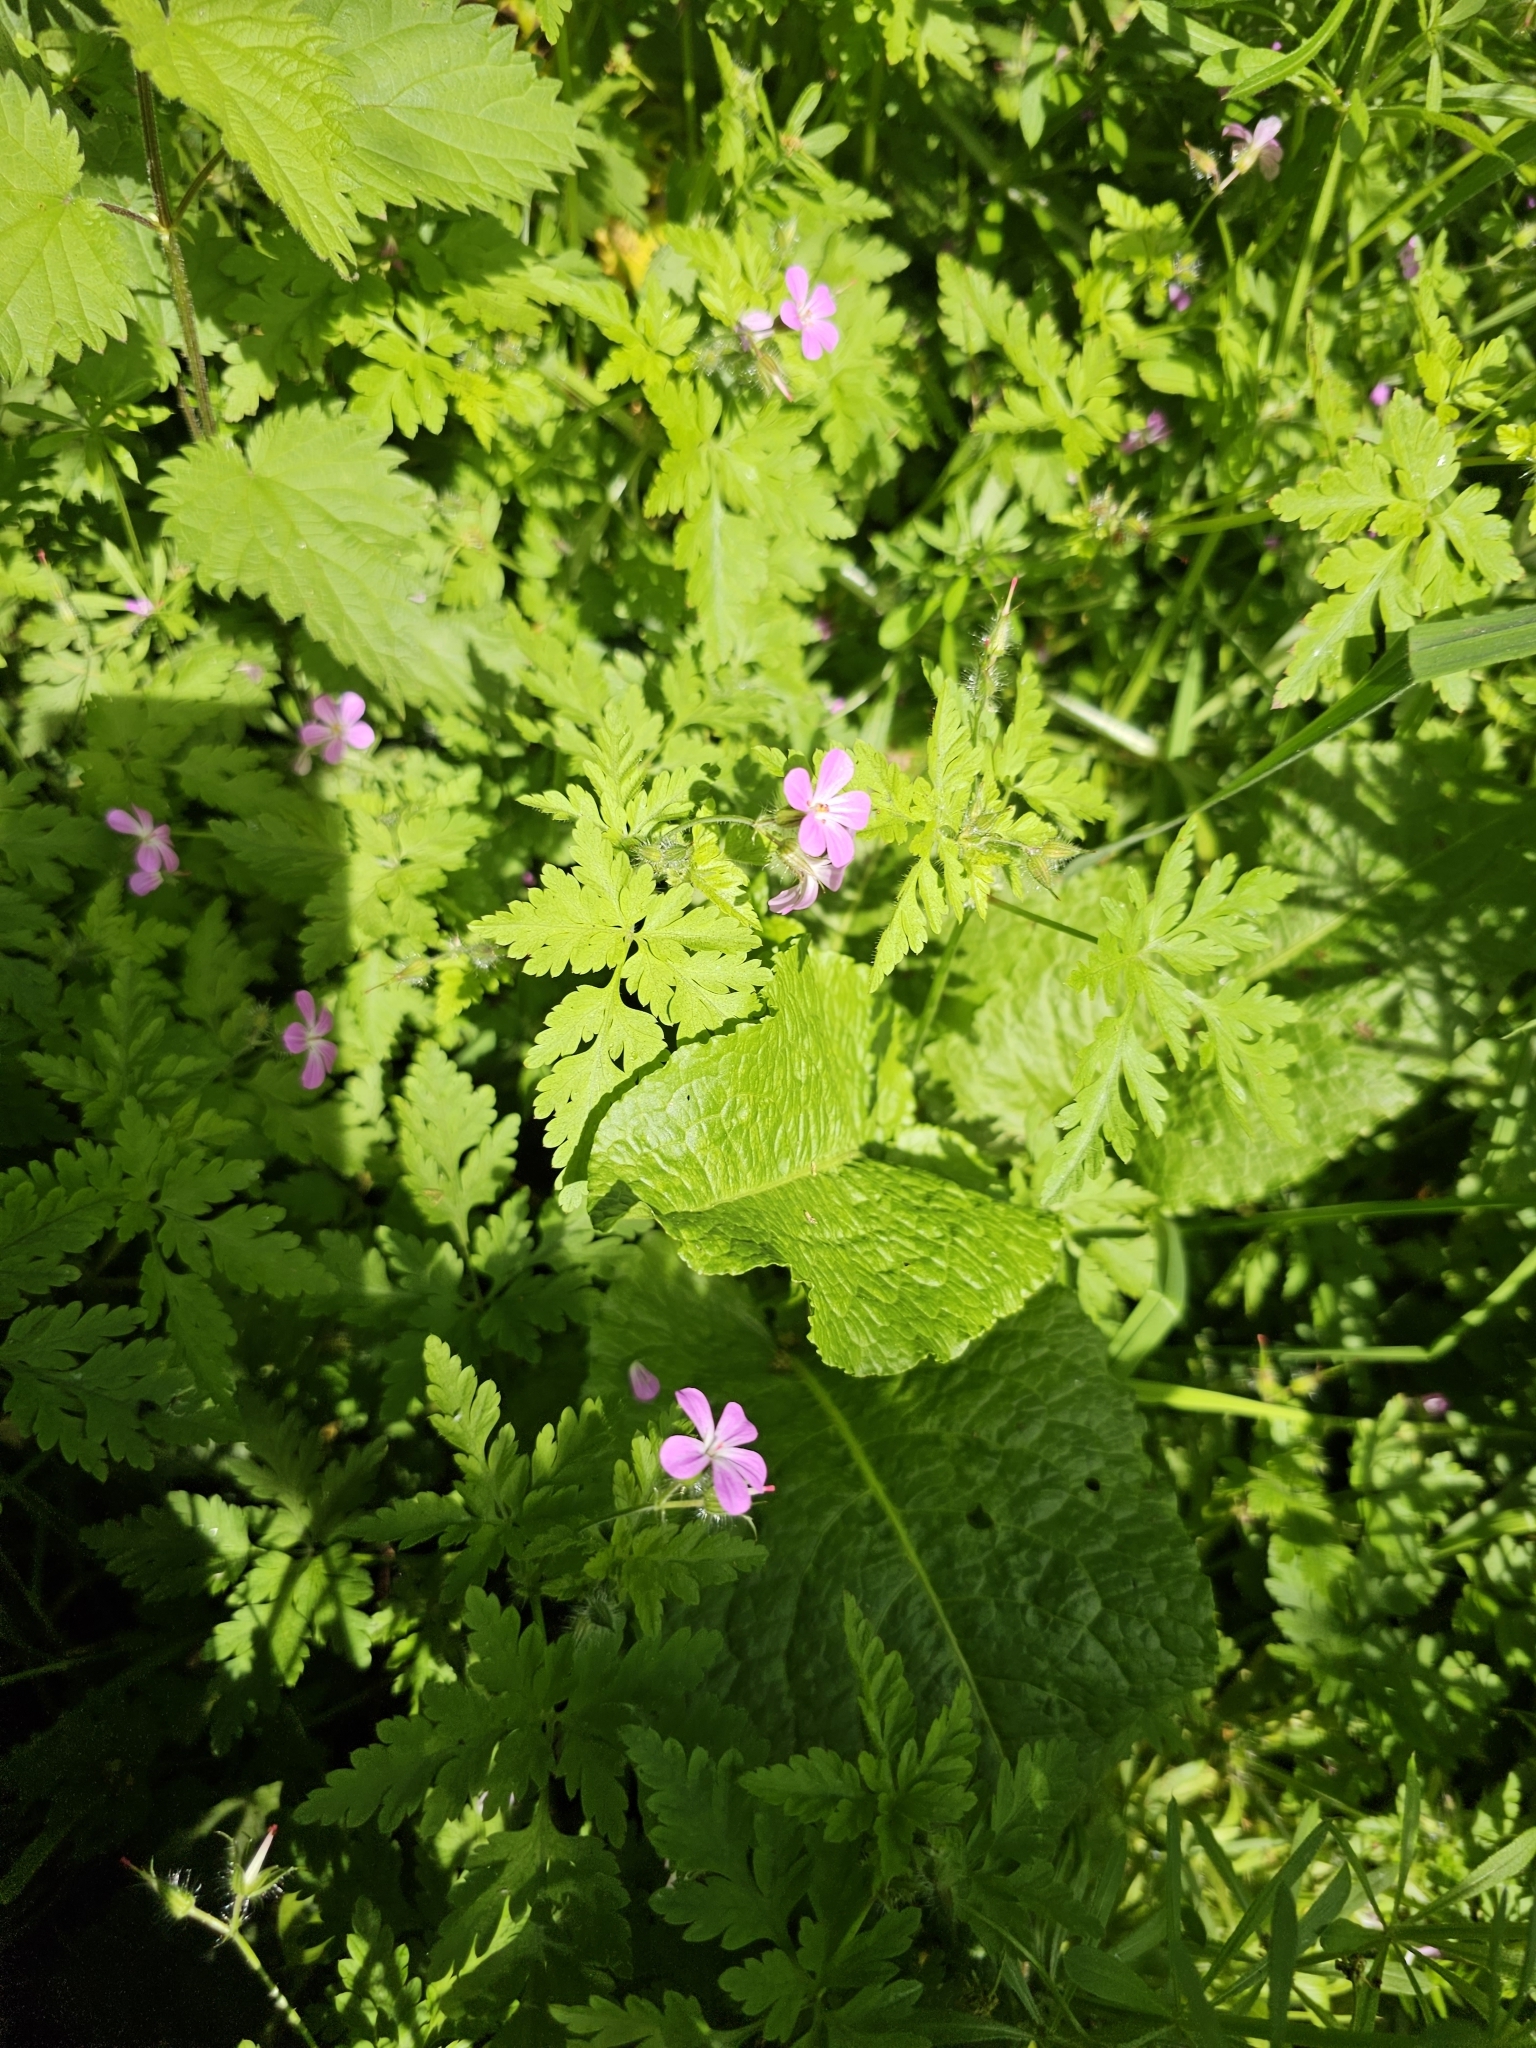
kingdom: Plantae
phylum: Tracheophyta
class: Magnoliopsida
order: Geraniales
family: Geraniaceae
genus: Geranium
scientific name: Geranium robertianum
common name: Herb-robert
